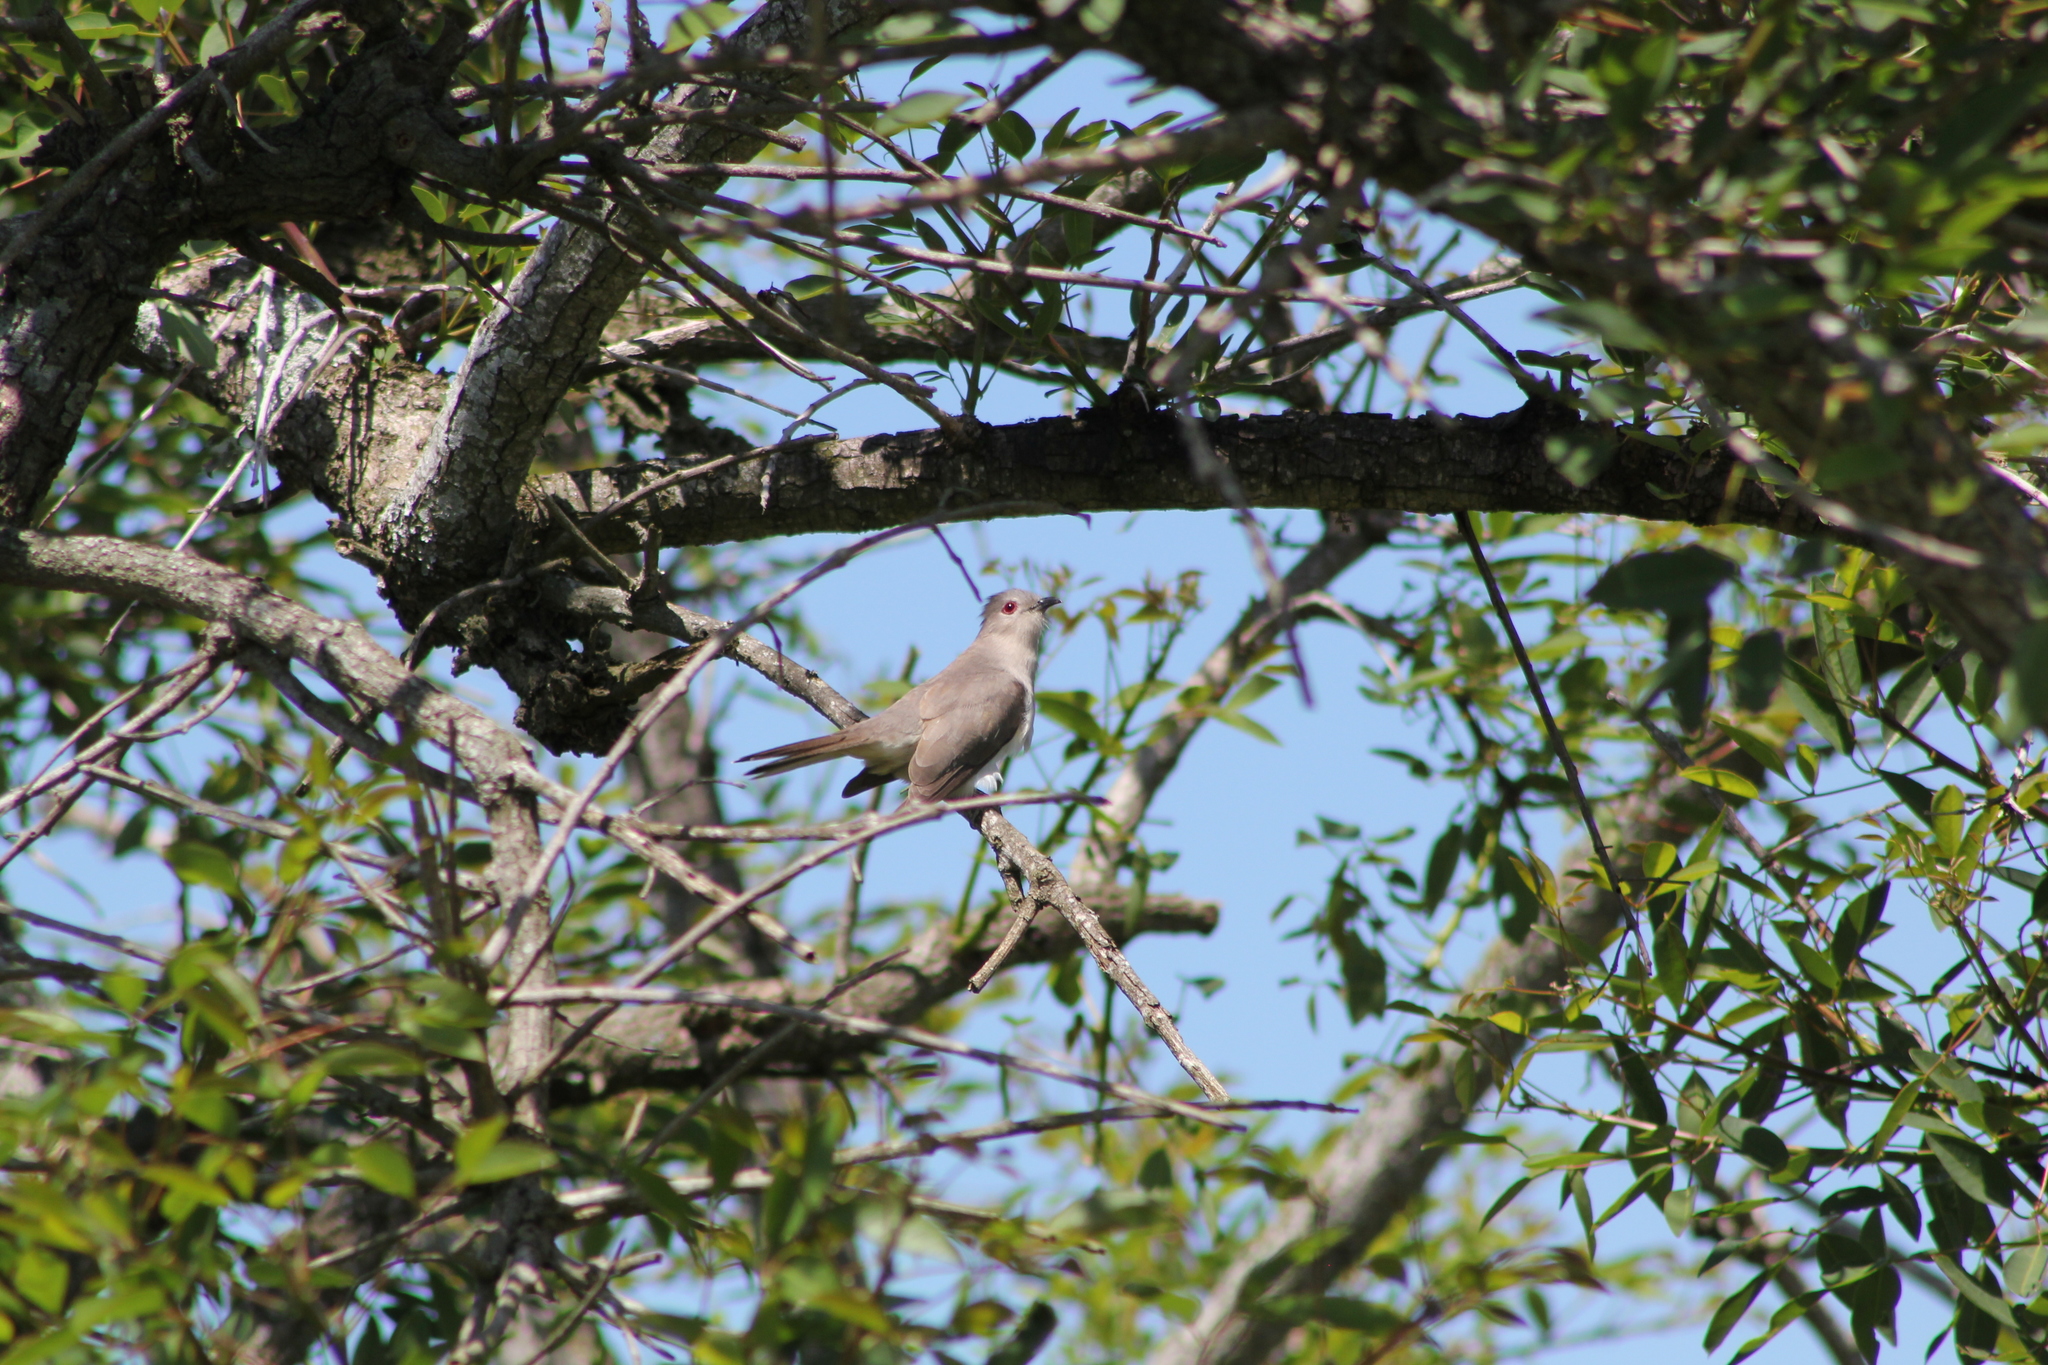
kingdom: Animalia
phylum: Chordata
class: Aves
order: Cuculiformes
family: Cuculidae
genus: Coccyzus
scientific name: Coccyzus cinereus
